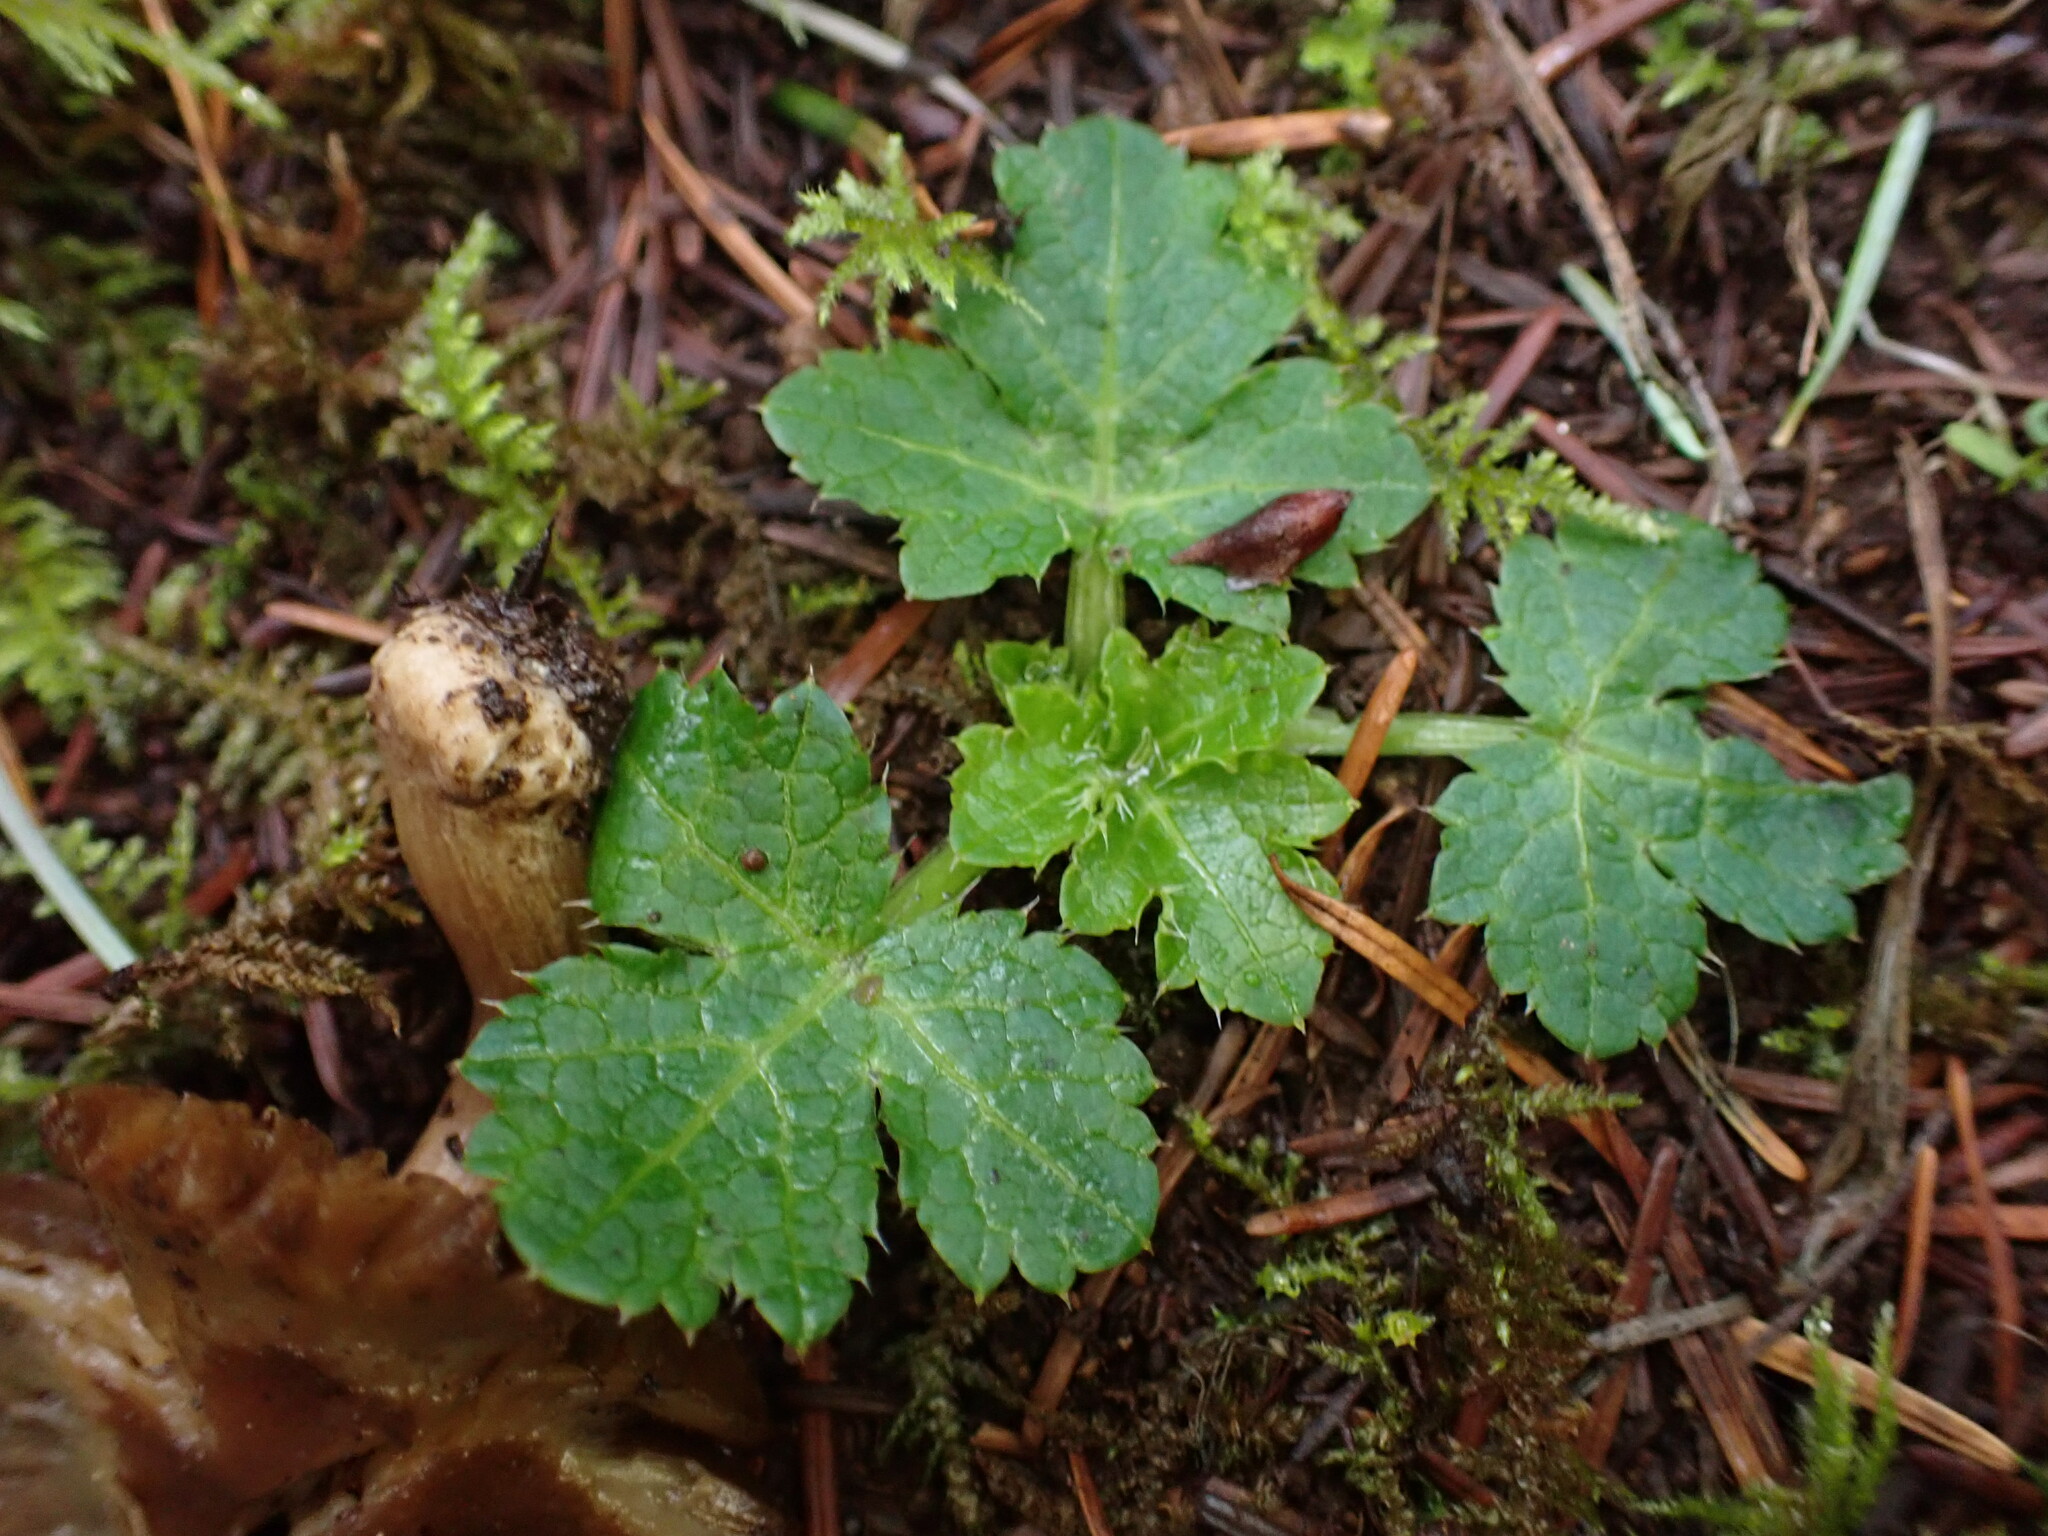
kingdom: Plantae
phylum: Tracheophyta
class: Magnoliopsida
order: Apiales
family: Apiaceae
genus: Sanicula
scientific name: Sanicula crassicaulis
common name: Western snakeroot
